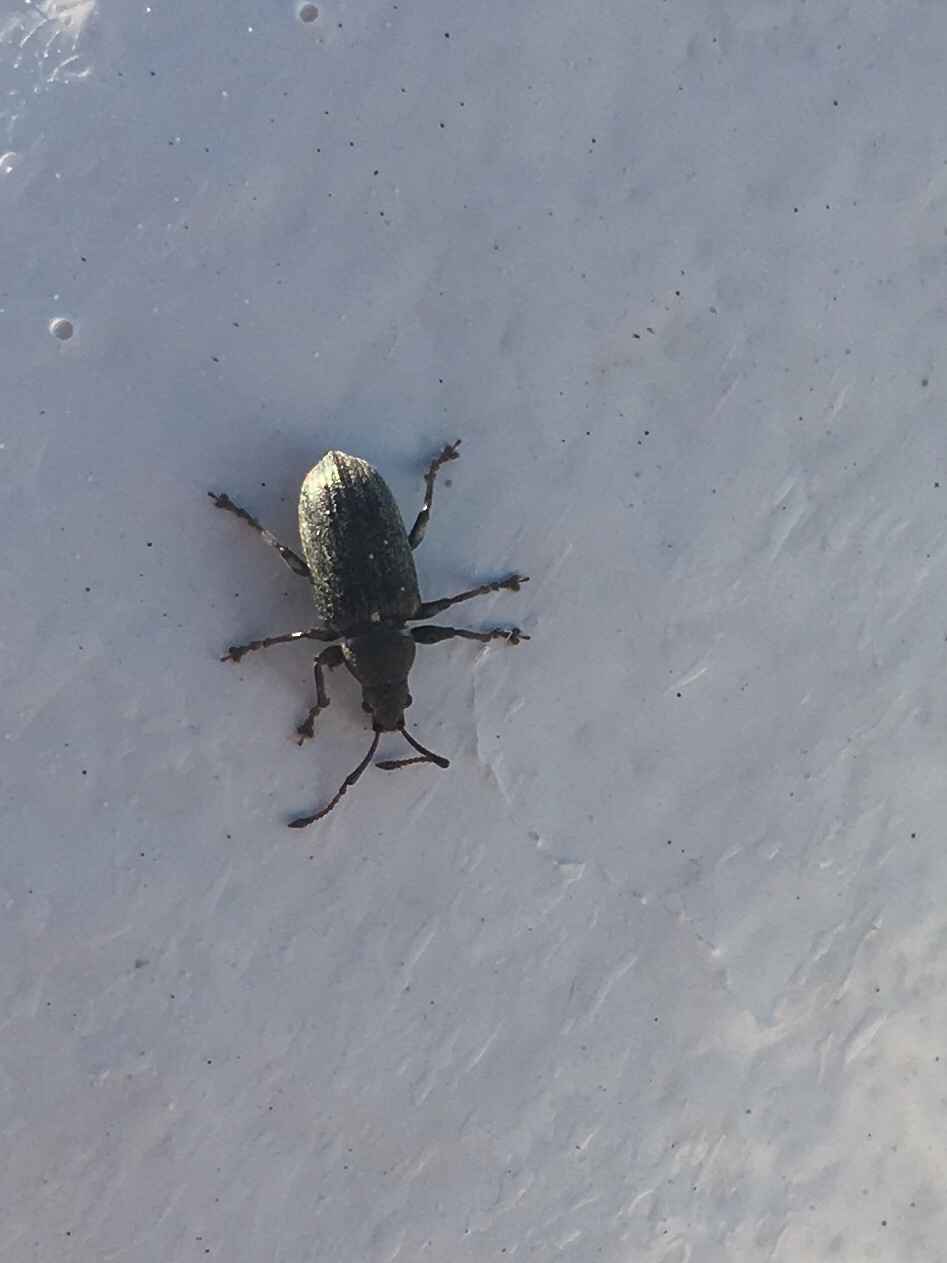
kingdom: Animalia
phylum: Arthropoda
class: Insecta
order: Coleoptera
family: Curculionidae
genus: Phyllobius
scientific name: Phyllobius pyri
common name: Common leaf weevil
